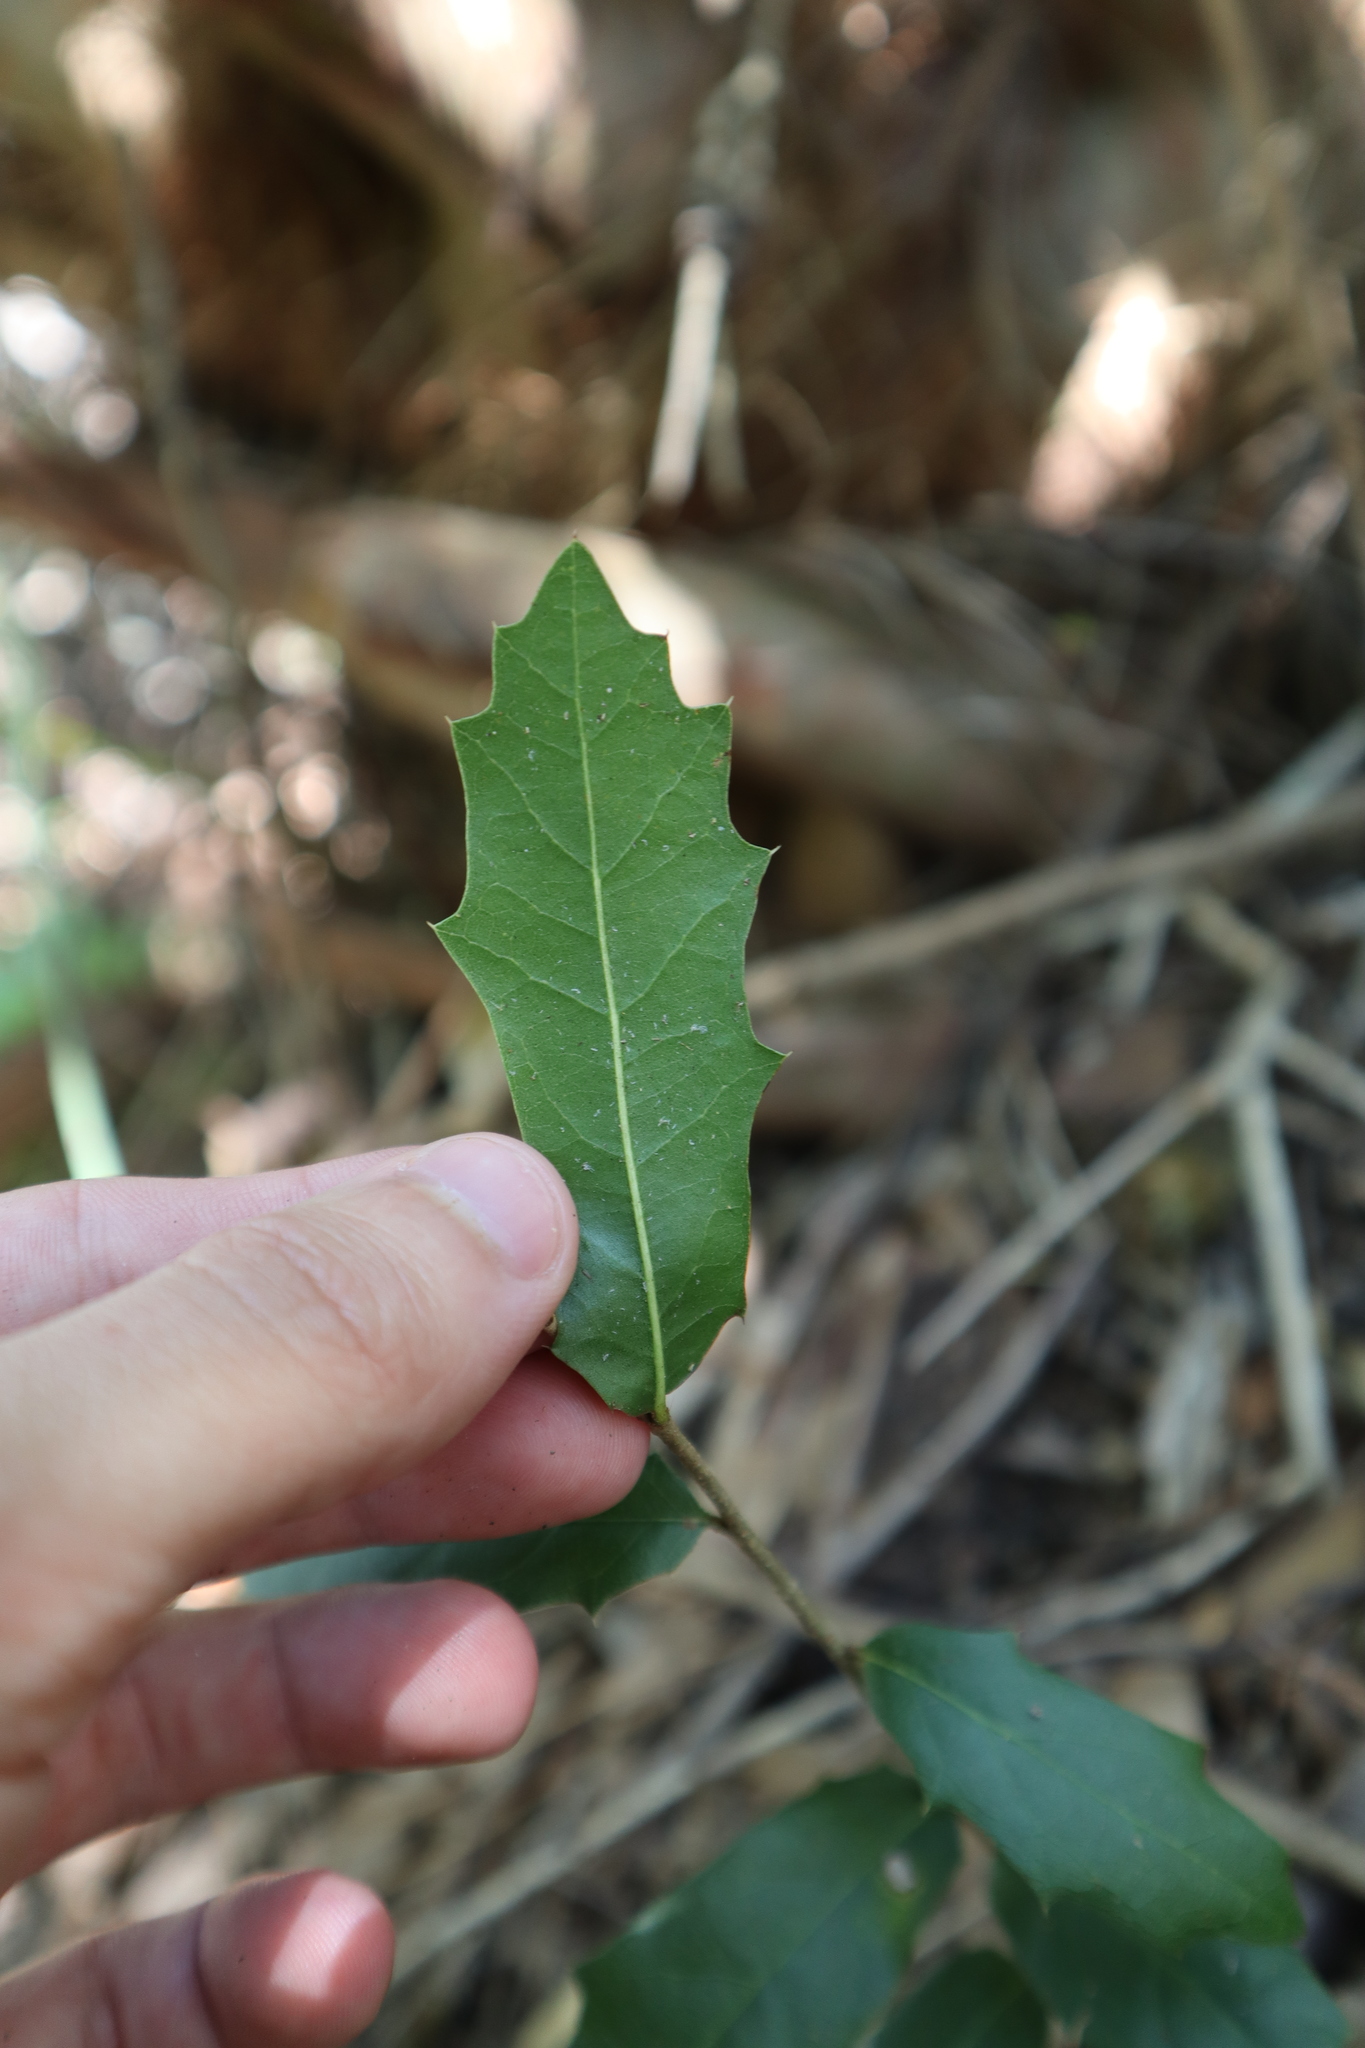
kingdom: Plantae
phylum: Tracheophyta
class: Magnoliopsida
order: Fagales
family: Fagaceae
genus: Quercus
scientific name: Quercus virginiana
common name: Southern live oak
